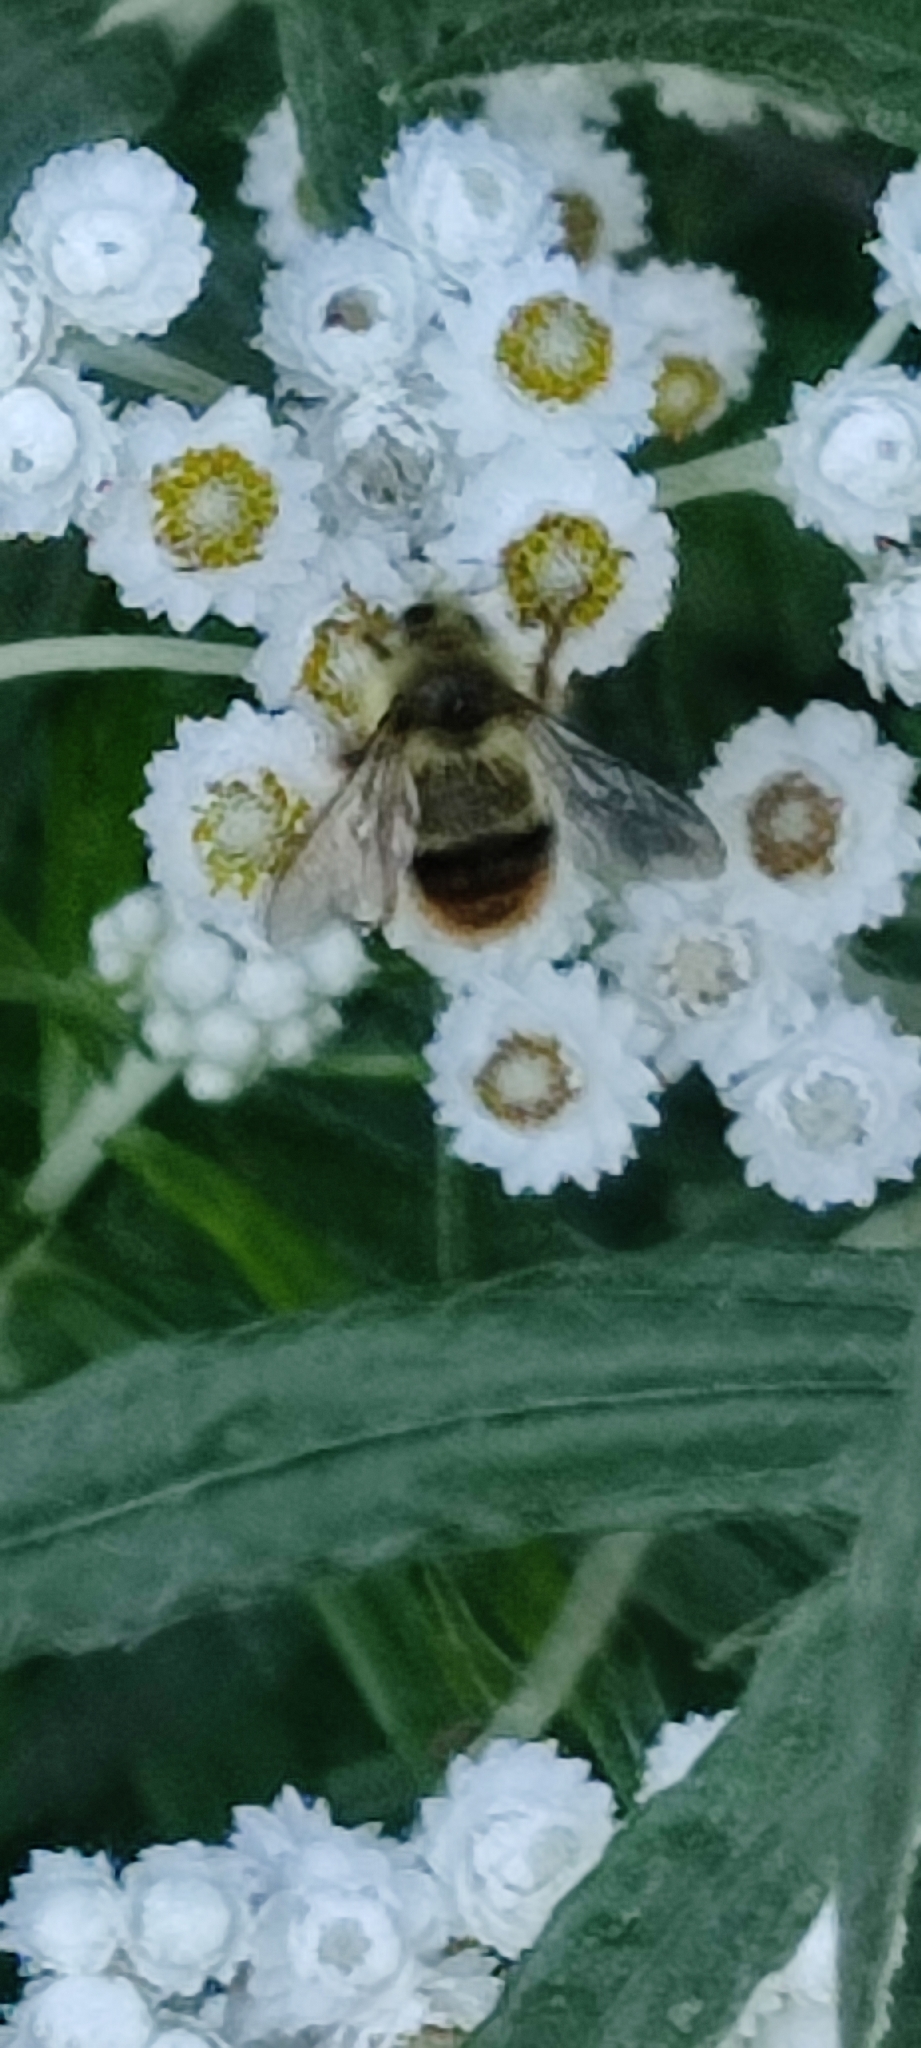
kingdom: Animalia
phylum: Arthropoda
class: Insecta
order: Hymenoptera
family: Apidae
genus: Bombus
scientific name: Bombus mixtus
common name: Fuzzy-horned bumble bee
